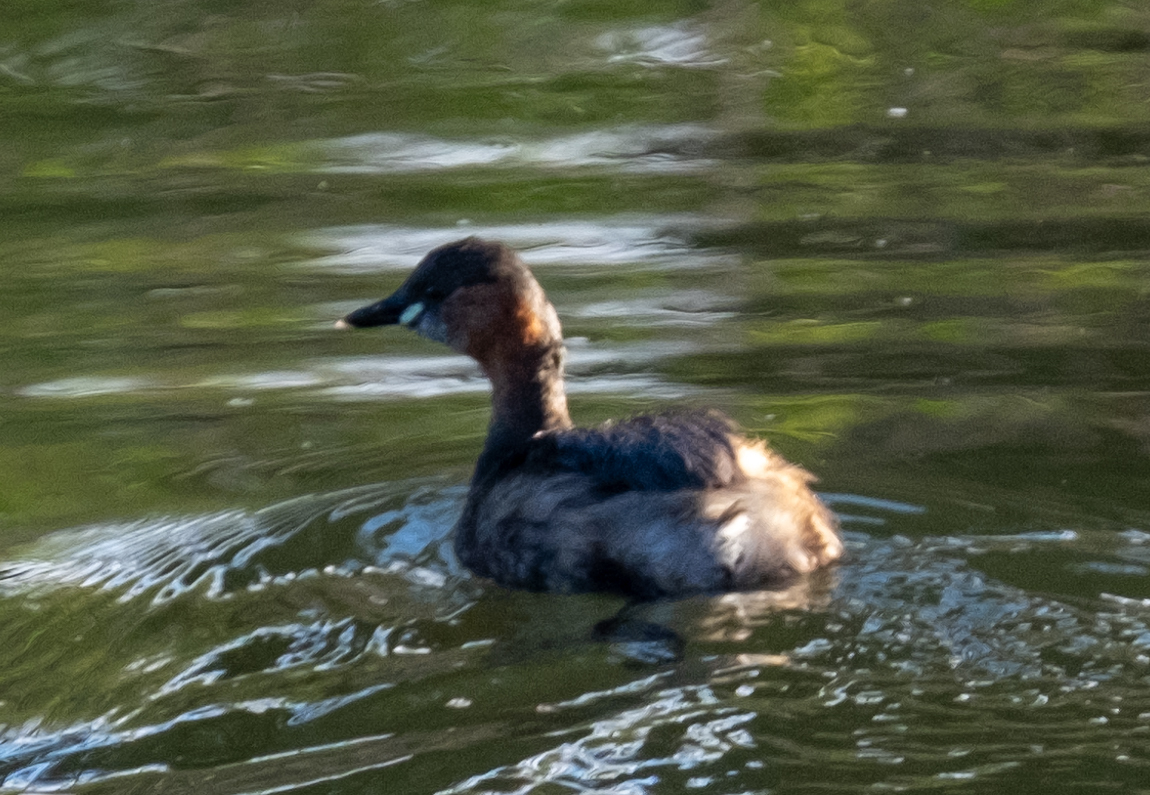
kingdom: Animalia
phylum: Chordata
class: Aves
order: Podicipediformes
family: Podicipedidae
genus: Tachybaptus
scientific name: Tachybaptus ruficollis
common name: Little grebe
